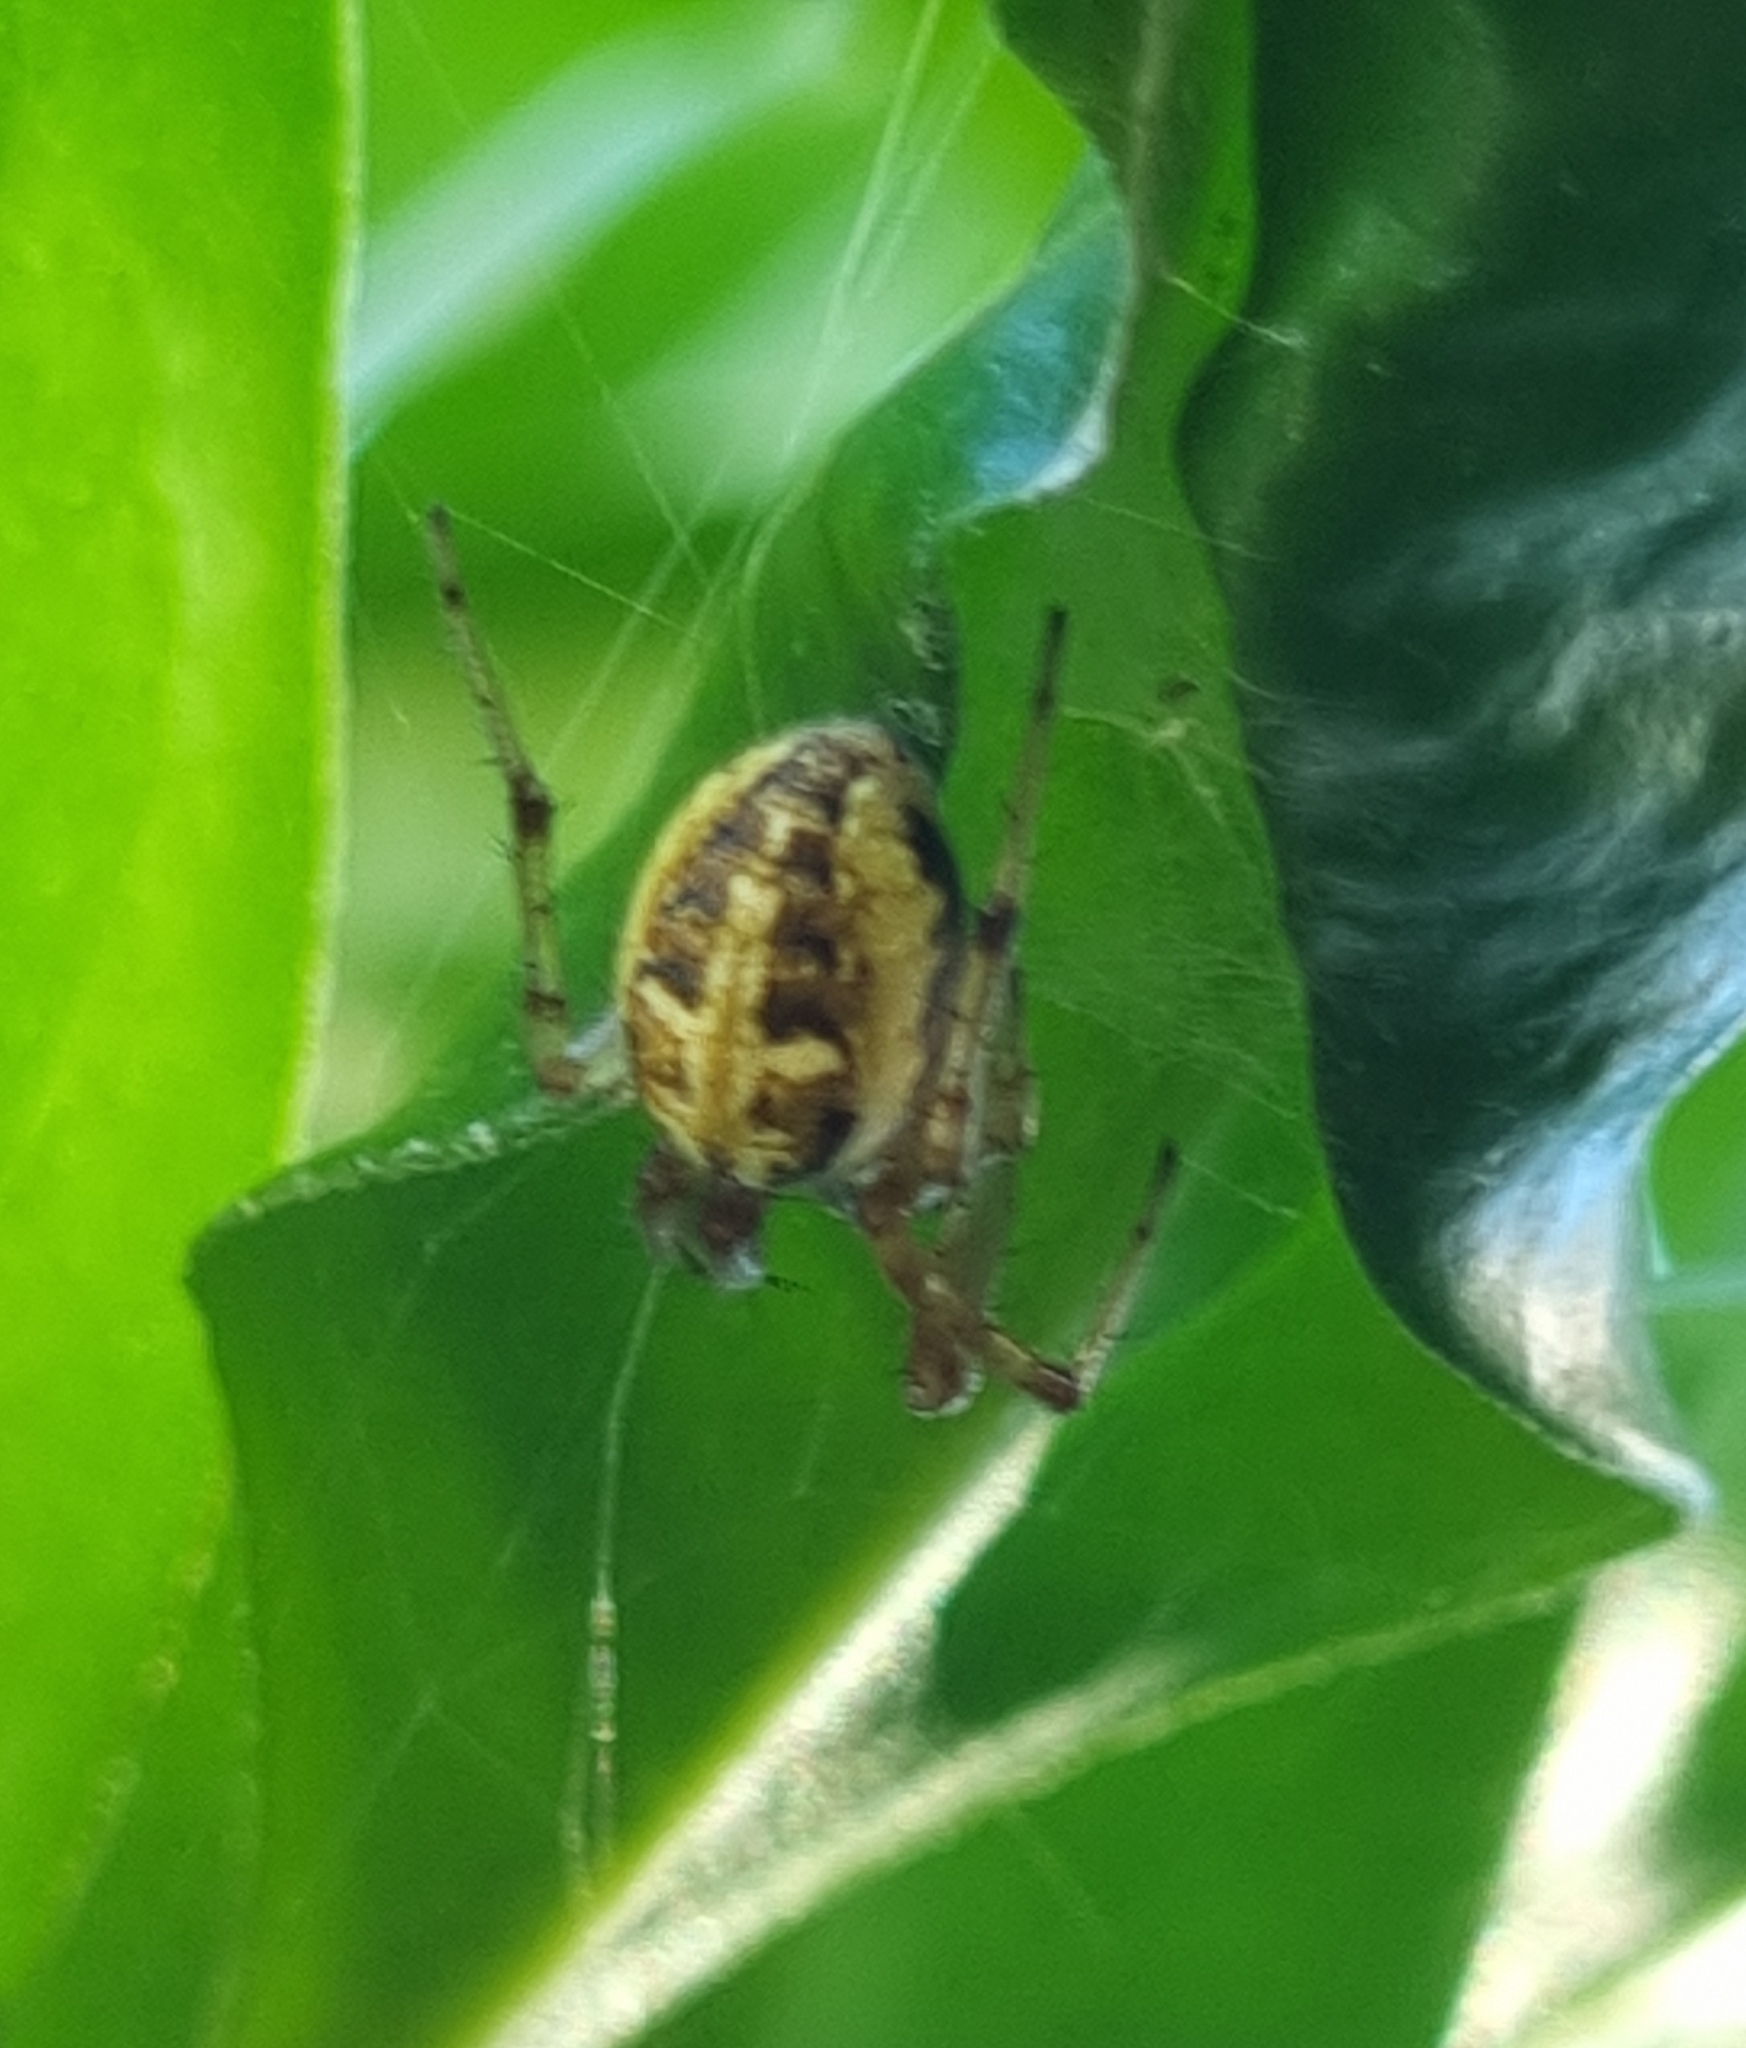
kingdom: Animalia
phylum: Arthropoda
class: Arachnida
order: Araneae
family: Araneidae
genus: Neoscona
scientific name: Neoscona theisi
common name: Spider
